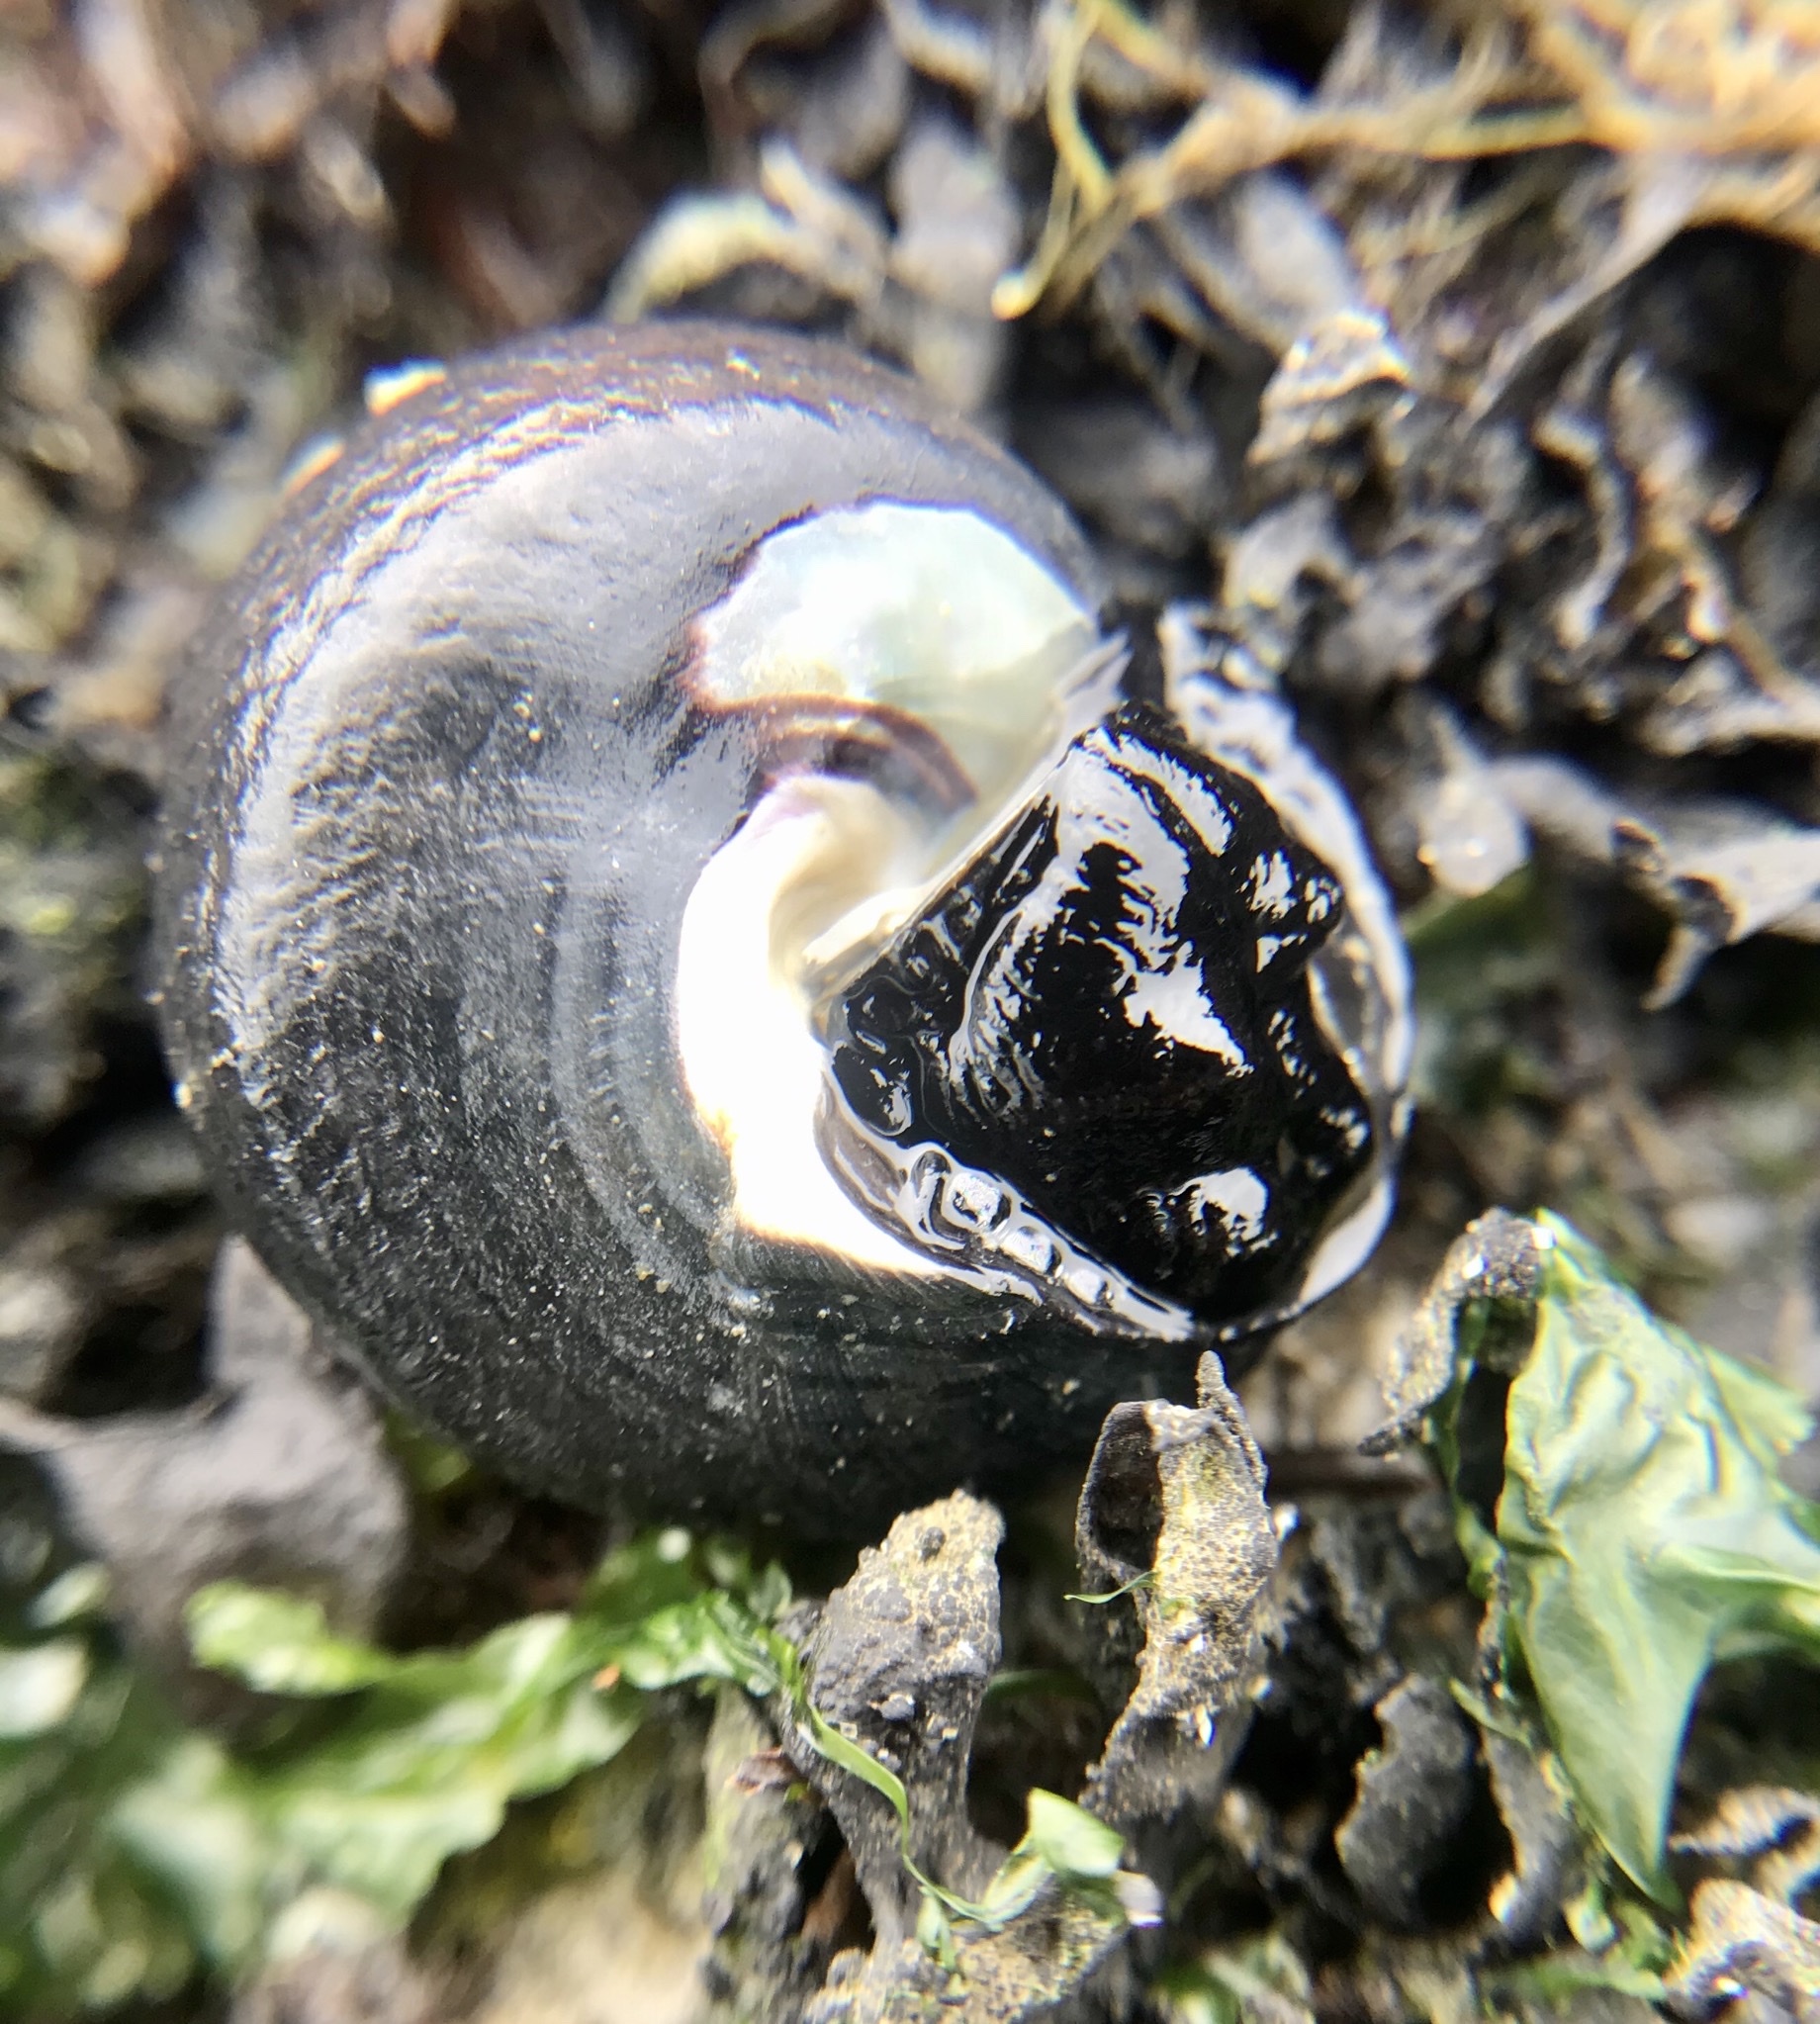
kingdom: Animalia
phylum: Mollusca
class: Gastropoda
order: Trochida
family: Tegulidae
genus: Tegula
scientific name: Tegula funebralis
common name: Black tegula
